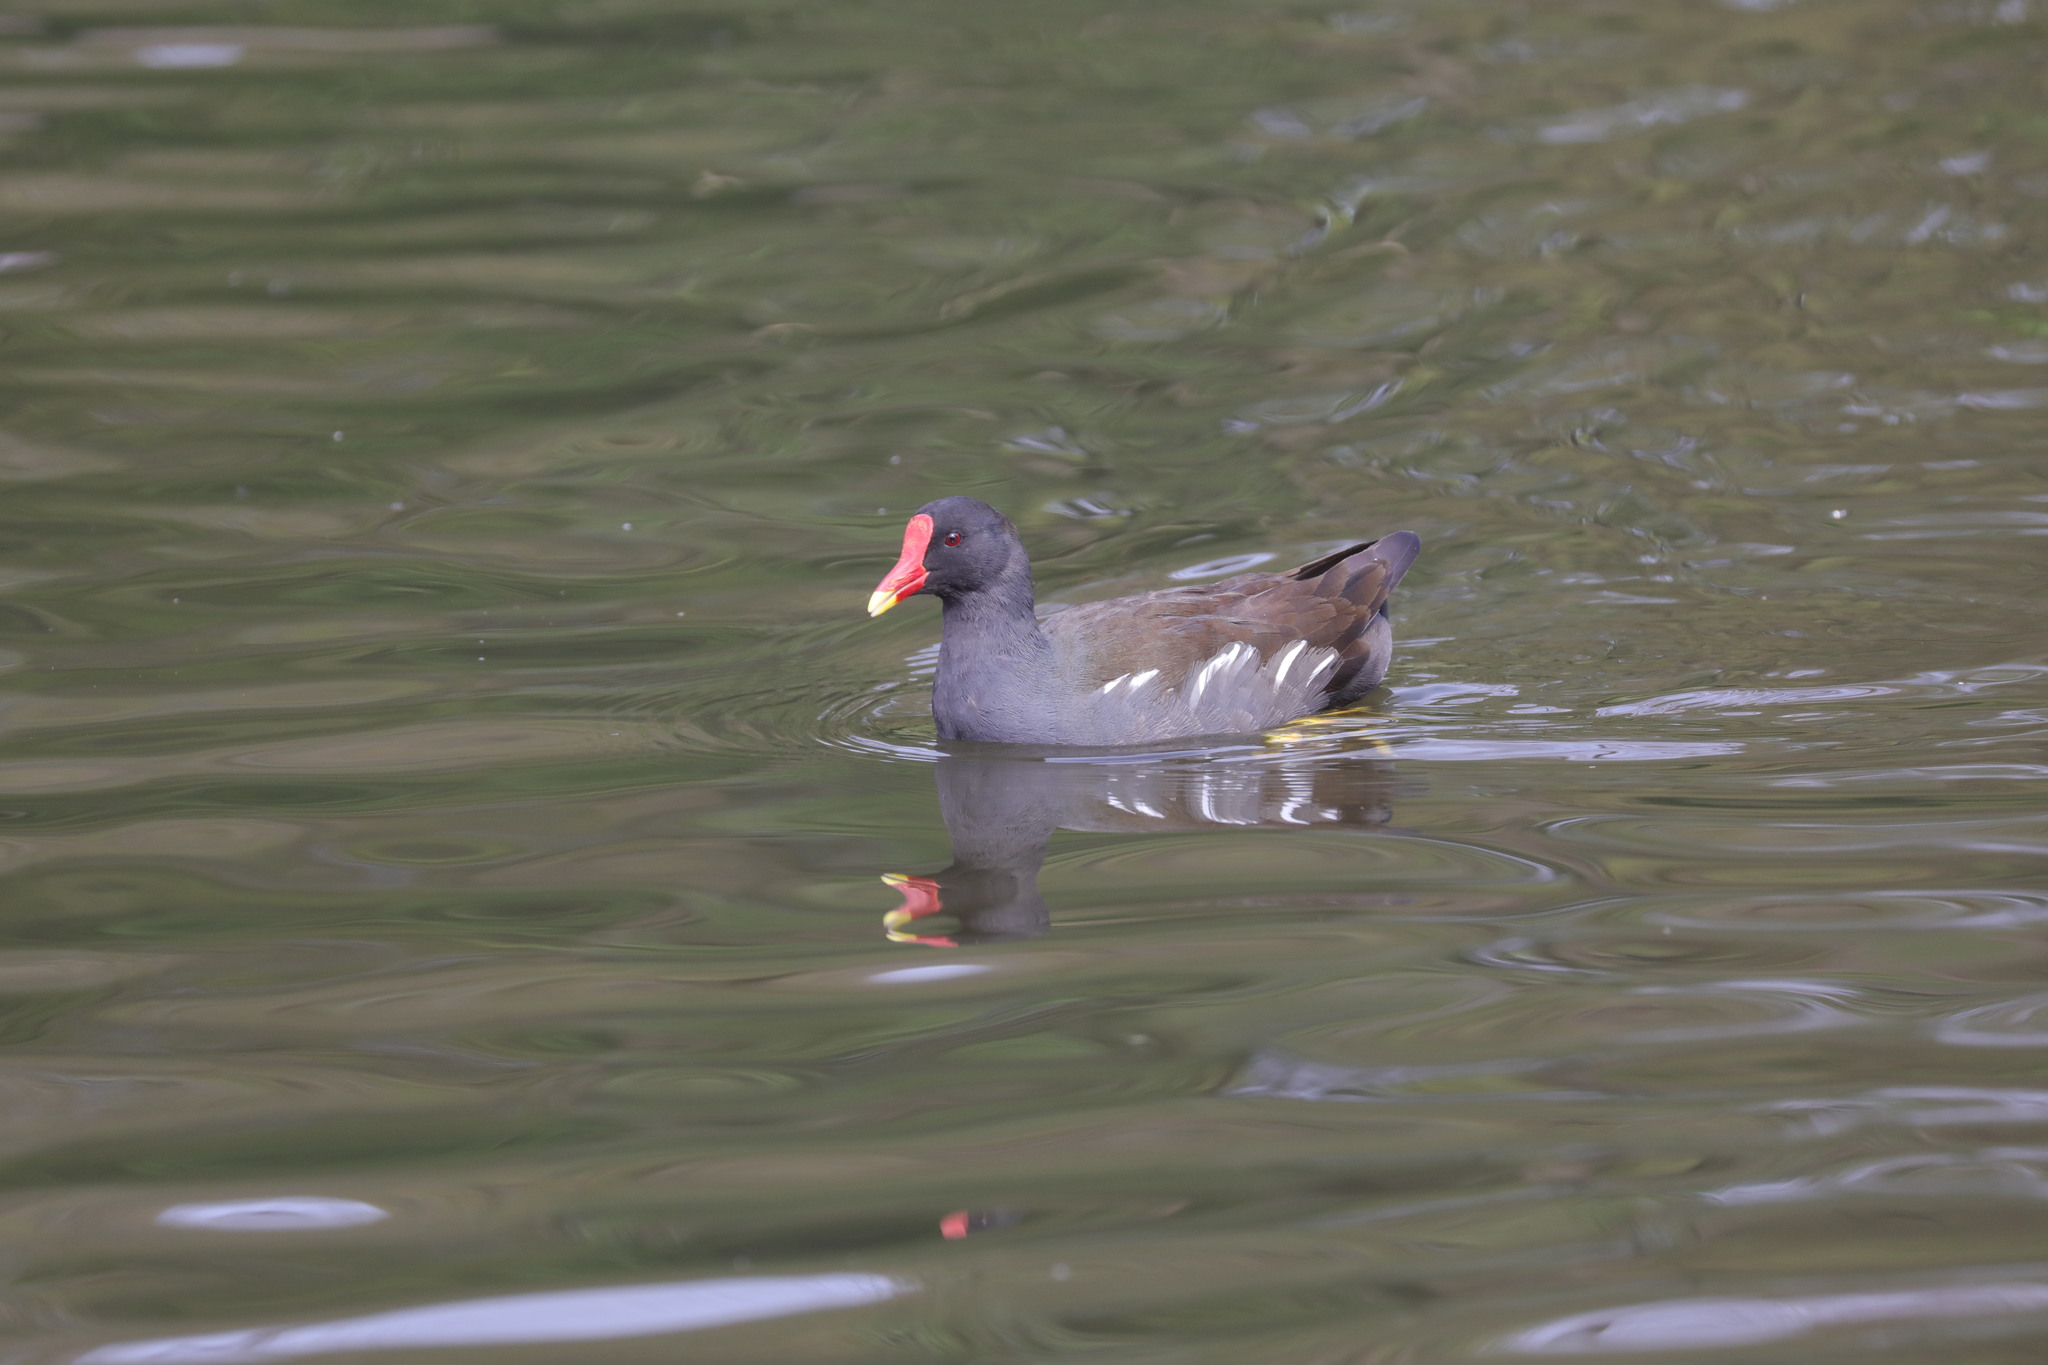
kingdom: Animalia
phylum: Chordata
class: Aves
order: Gruiformes
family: Rallidae
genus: Gallinula
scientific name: Gallinula chloropus
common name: Common moorhen
